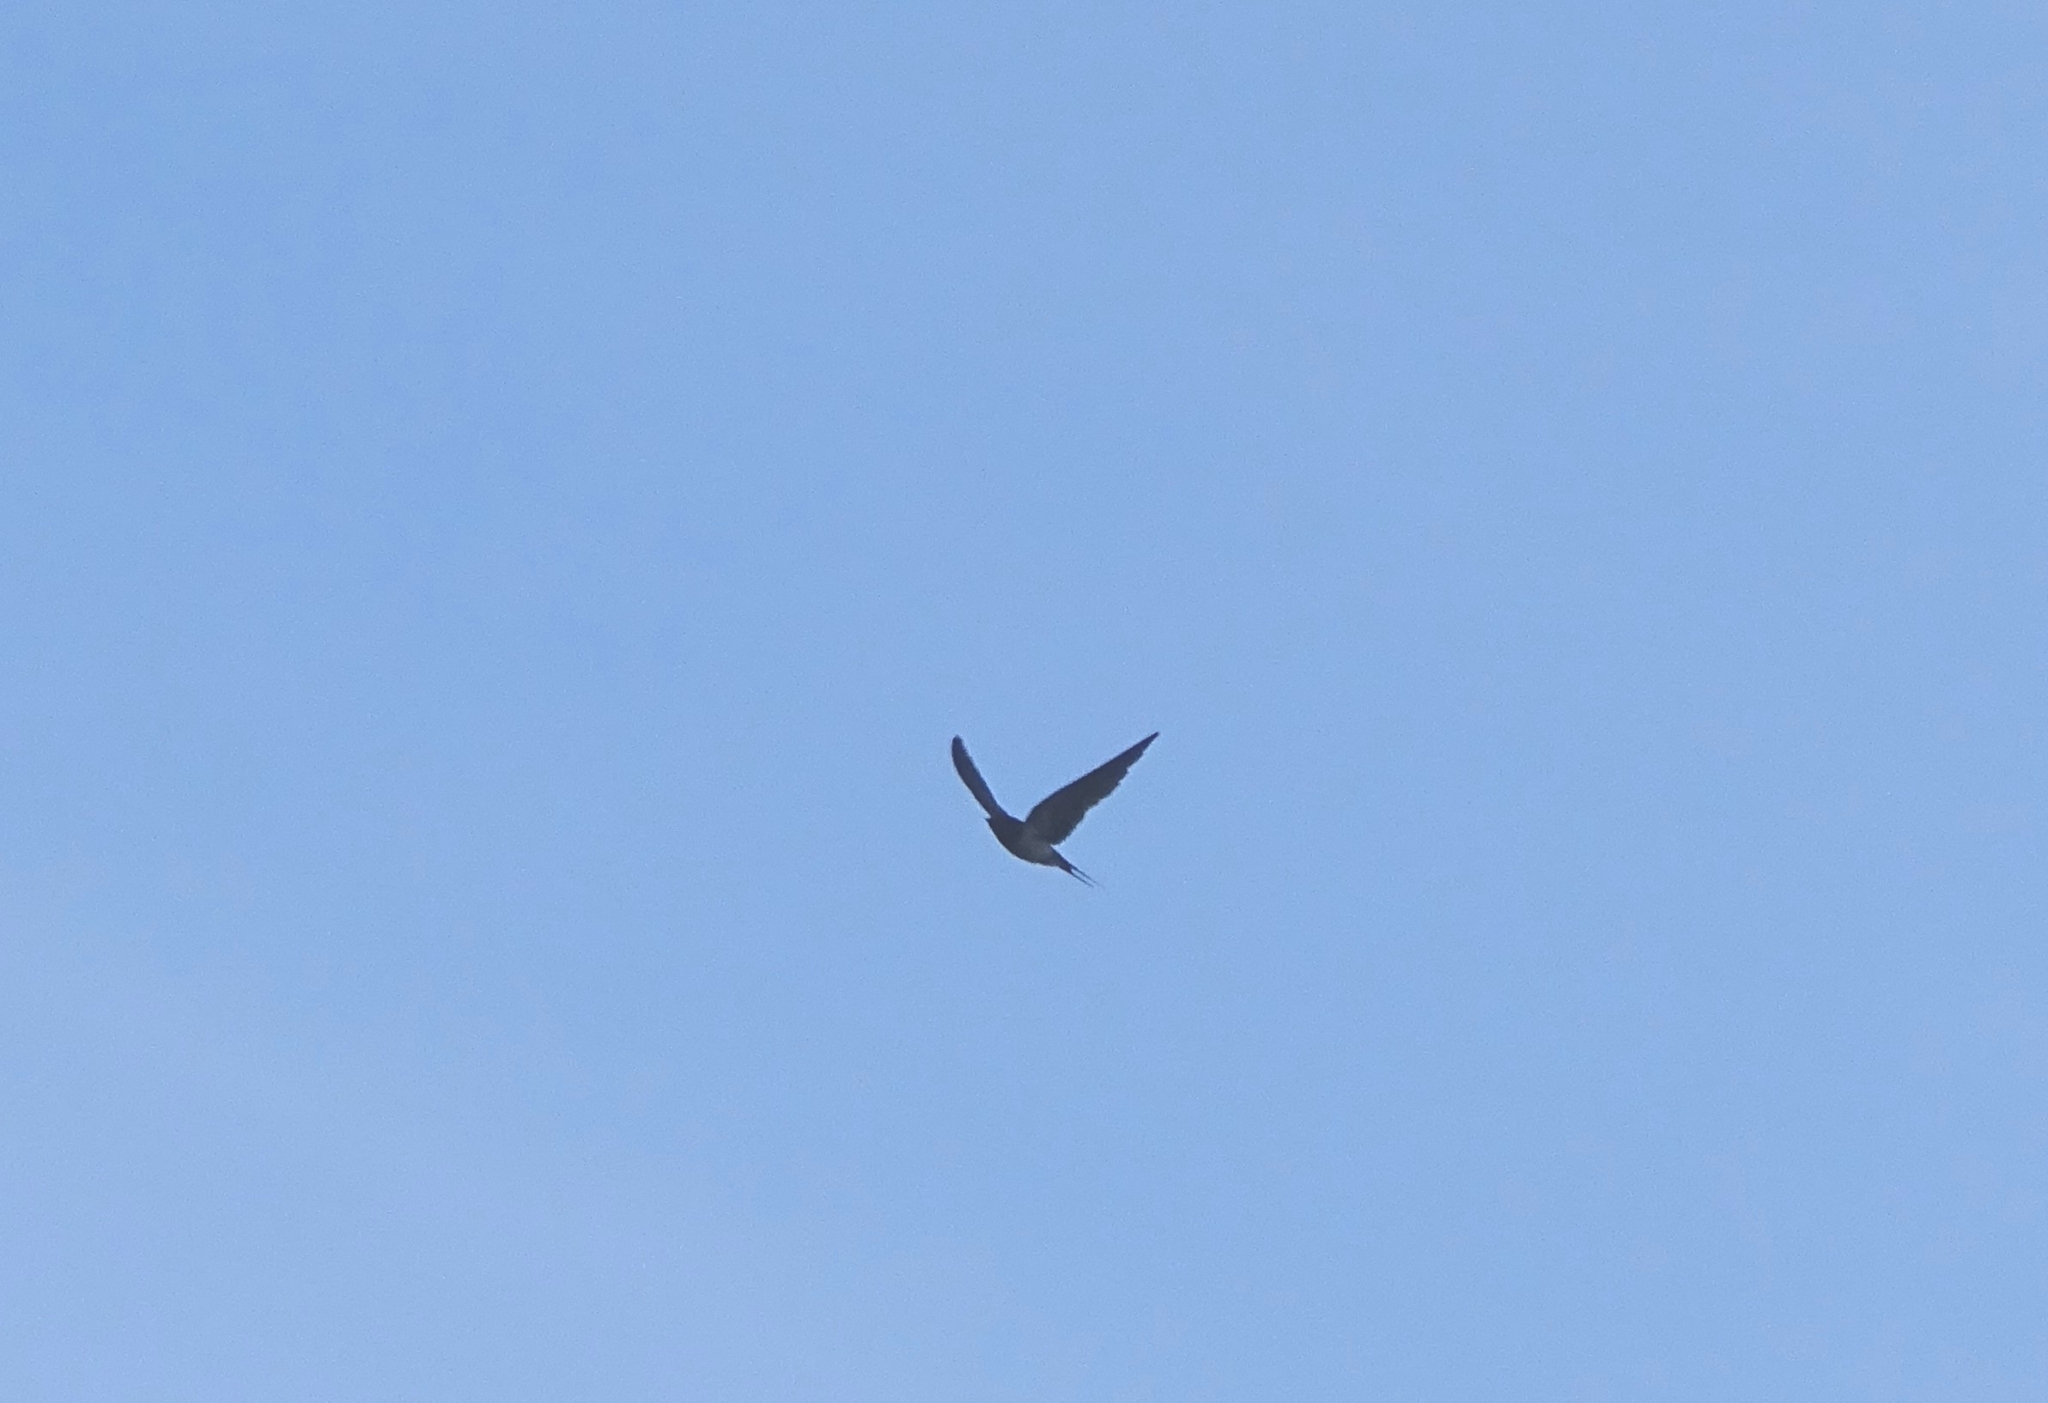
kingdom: Animalia
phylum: Chordata
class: Aves
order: Passeriformes
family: Hirundinidae
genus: Hirundo
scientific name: Hirundo rustica
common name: Barn swallow
